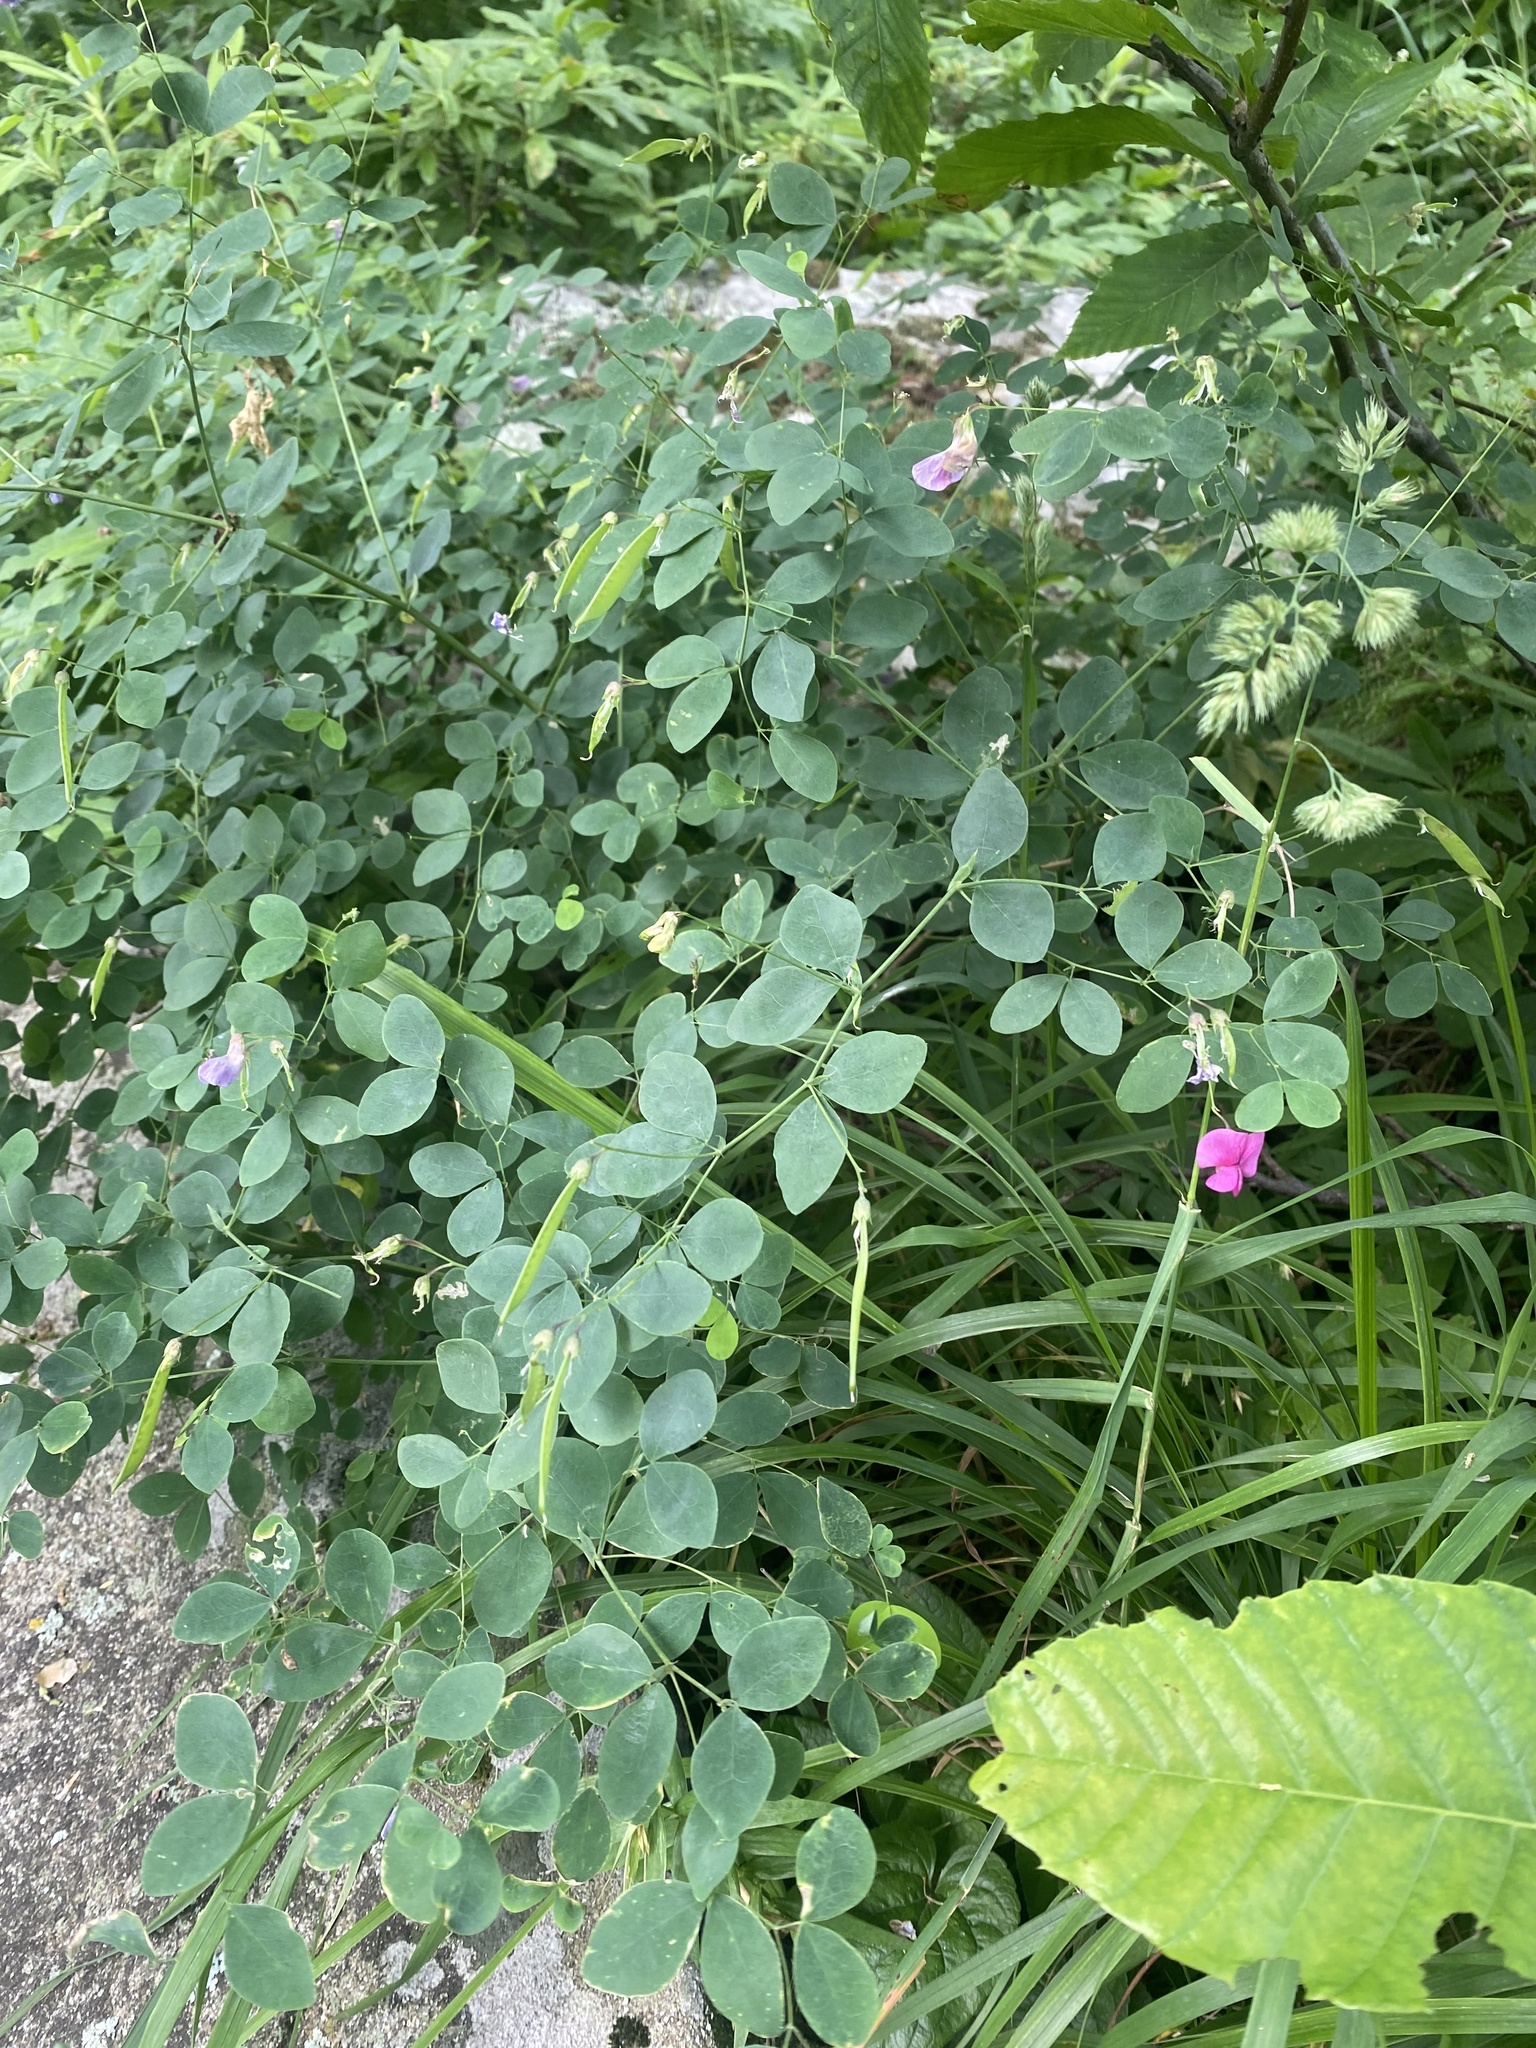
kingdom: Plantae
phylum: Tracheophyta
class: Magnoliopsida
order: Fabales
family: Fabaceae
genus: Lathyrus
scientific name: Lathyrus roseus
